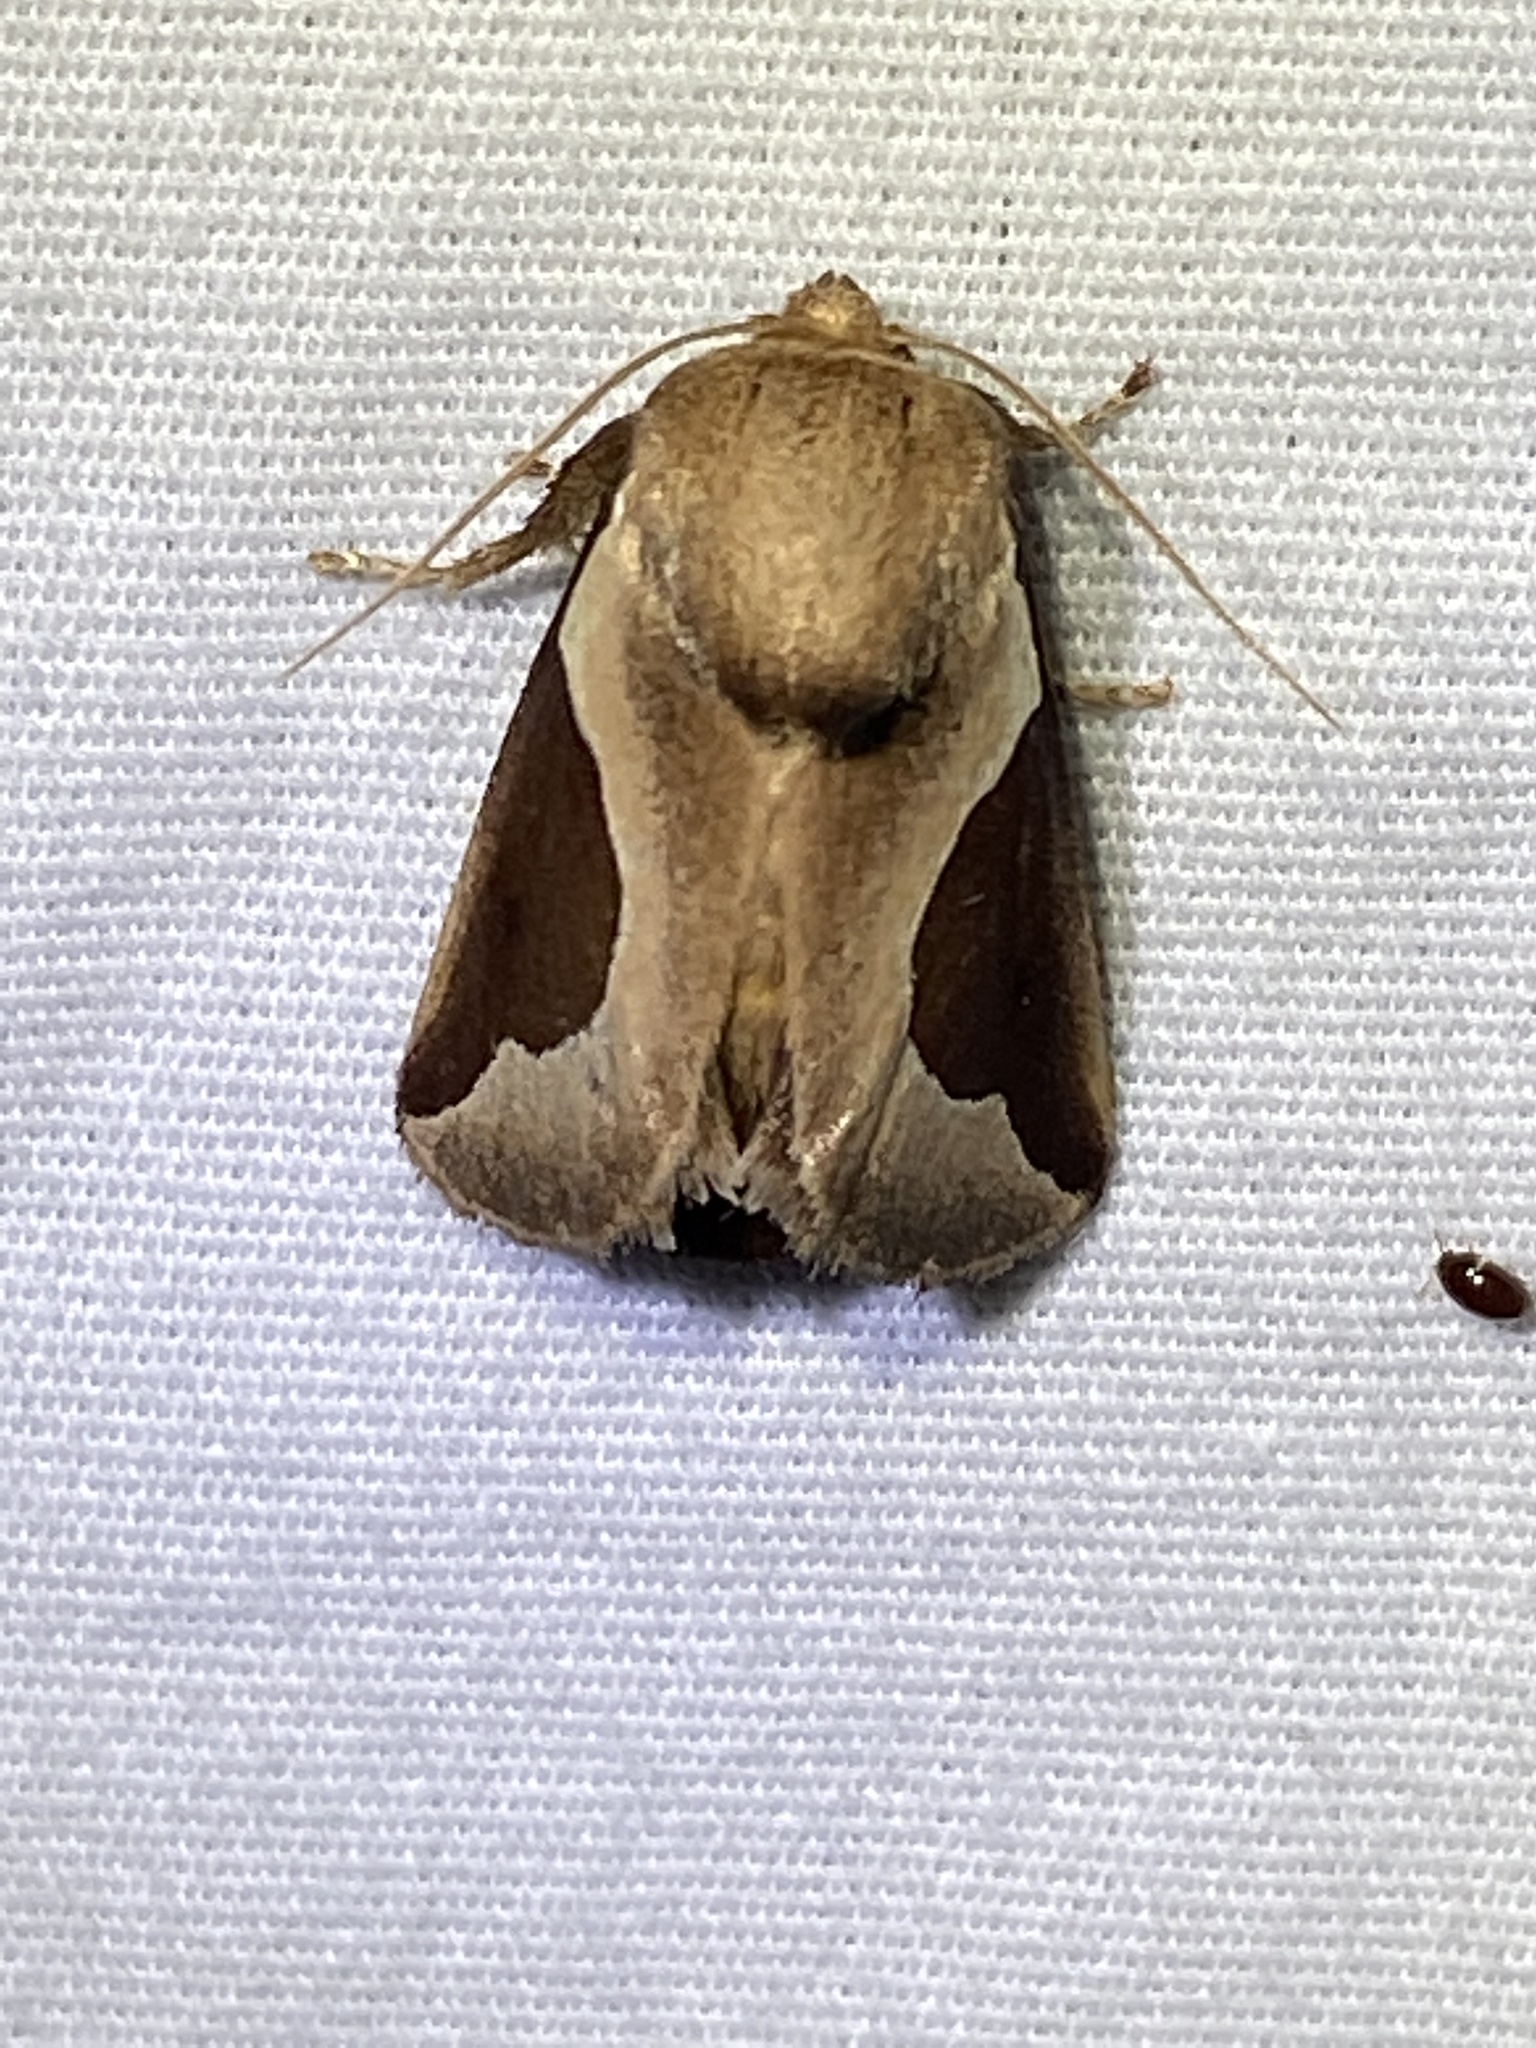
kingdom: Animalia
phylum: Arthropoda
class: Insecta
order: Lepidoptera
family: Limacodidae
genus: Prolimacodes
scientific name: Prolimacodes badia
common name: Skiff moth
